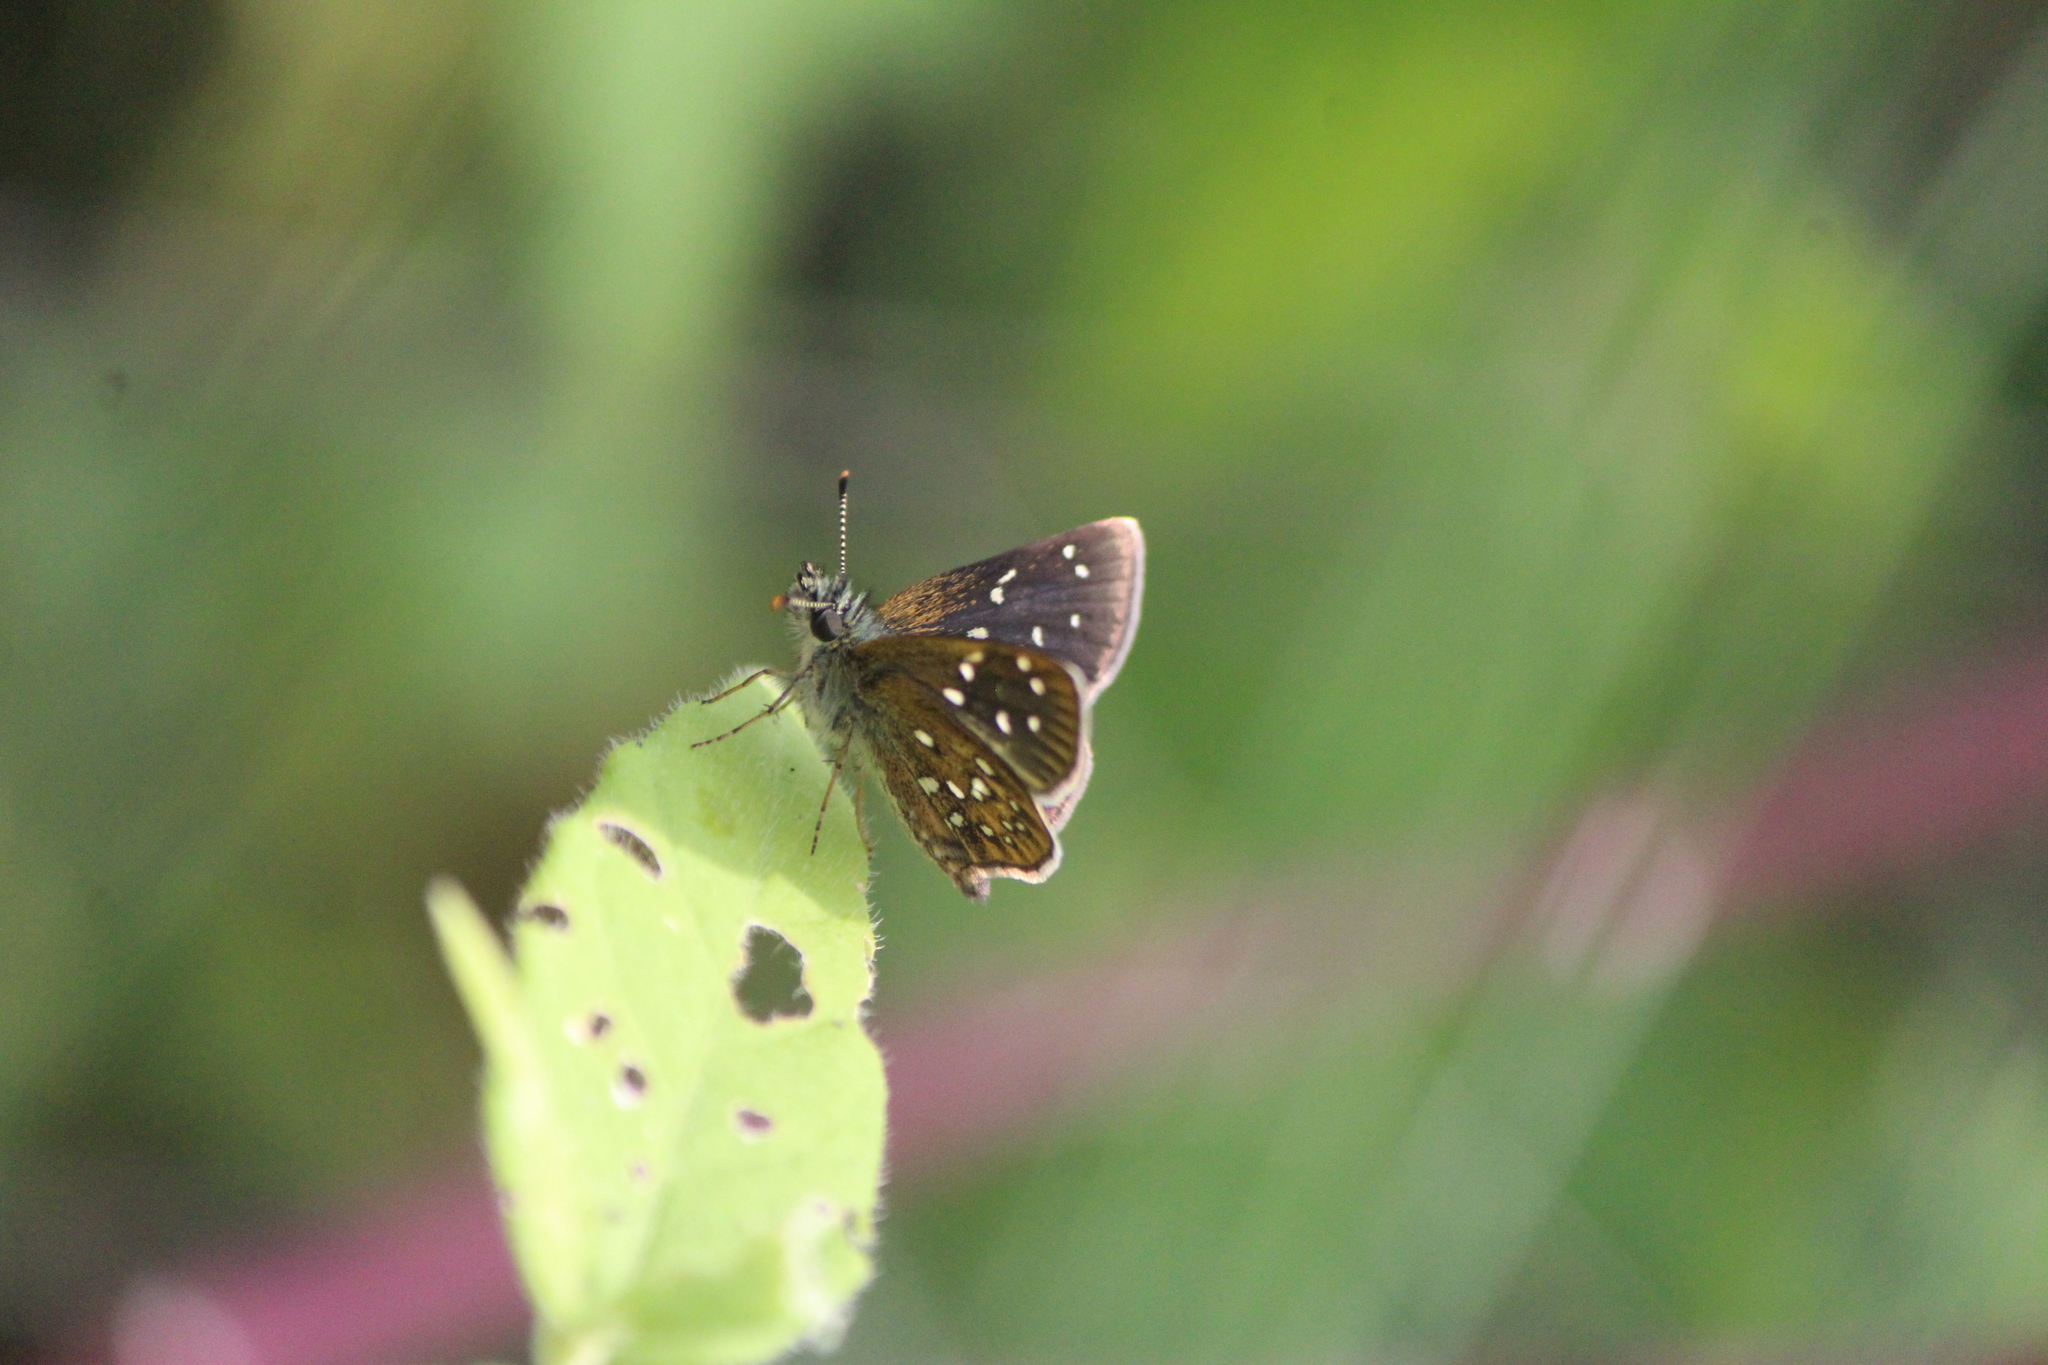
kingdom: Animalia
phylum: Arthropoda
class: Insecta
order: Lepidoptera
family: Hesperiidae
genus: Piruna
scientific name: Piruna aea
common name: Many-spotted skipperling
